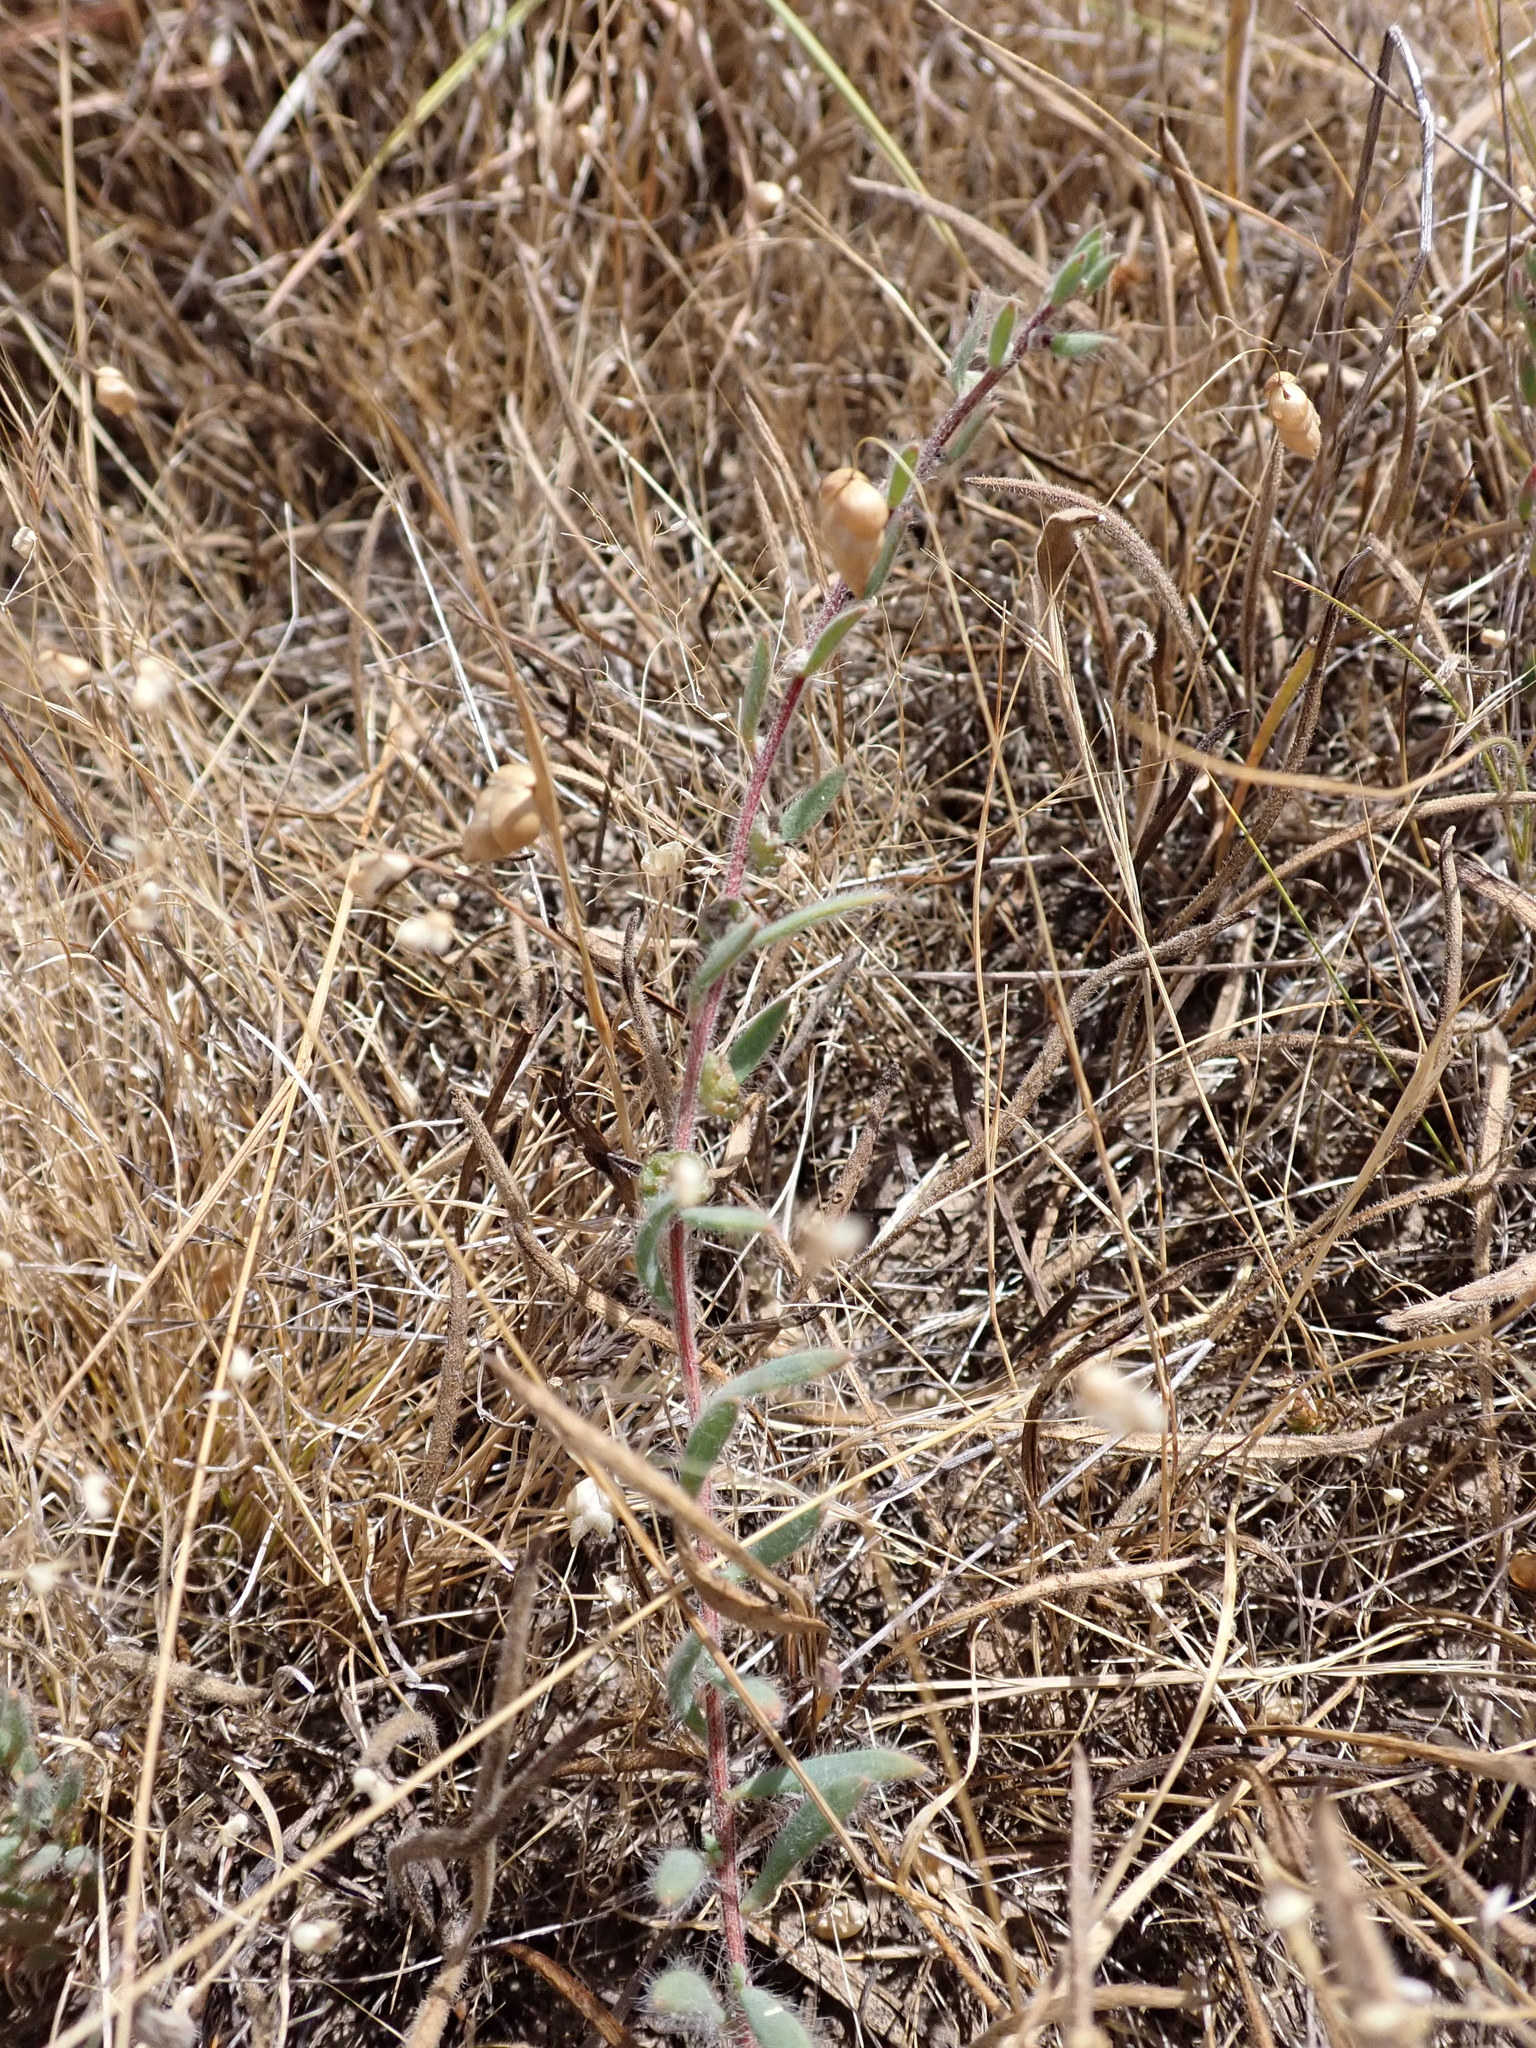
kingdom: Plantae
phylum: Tracheophyta
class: Magnoliopsida
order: Caryophyllales
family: Amaranthaceae
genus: Maireana
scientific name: Maireana enchylaenoides
